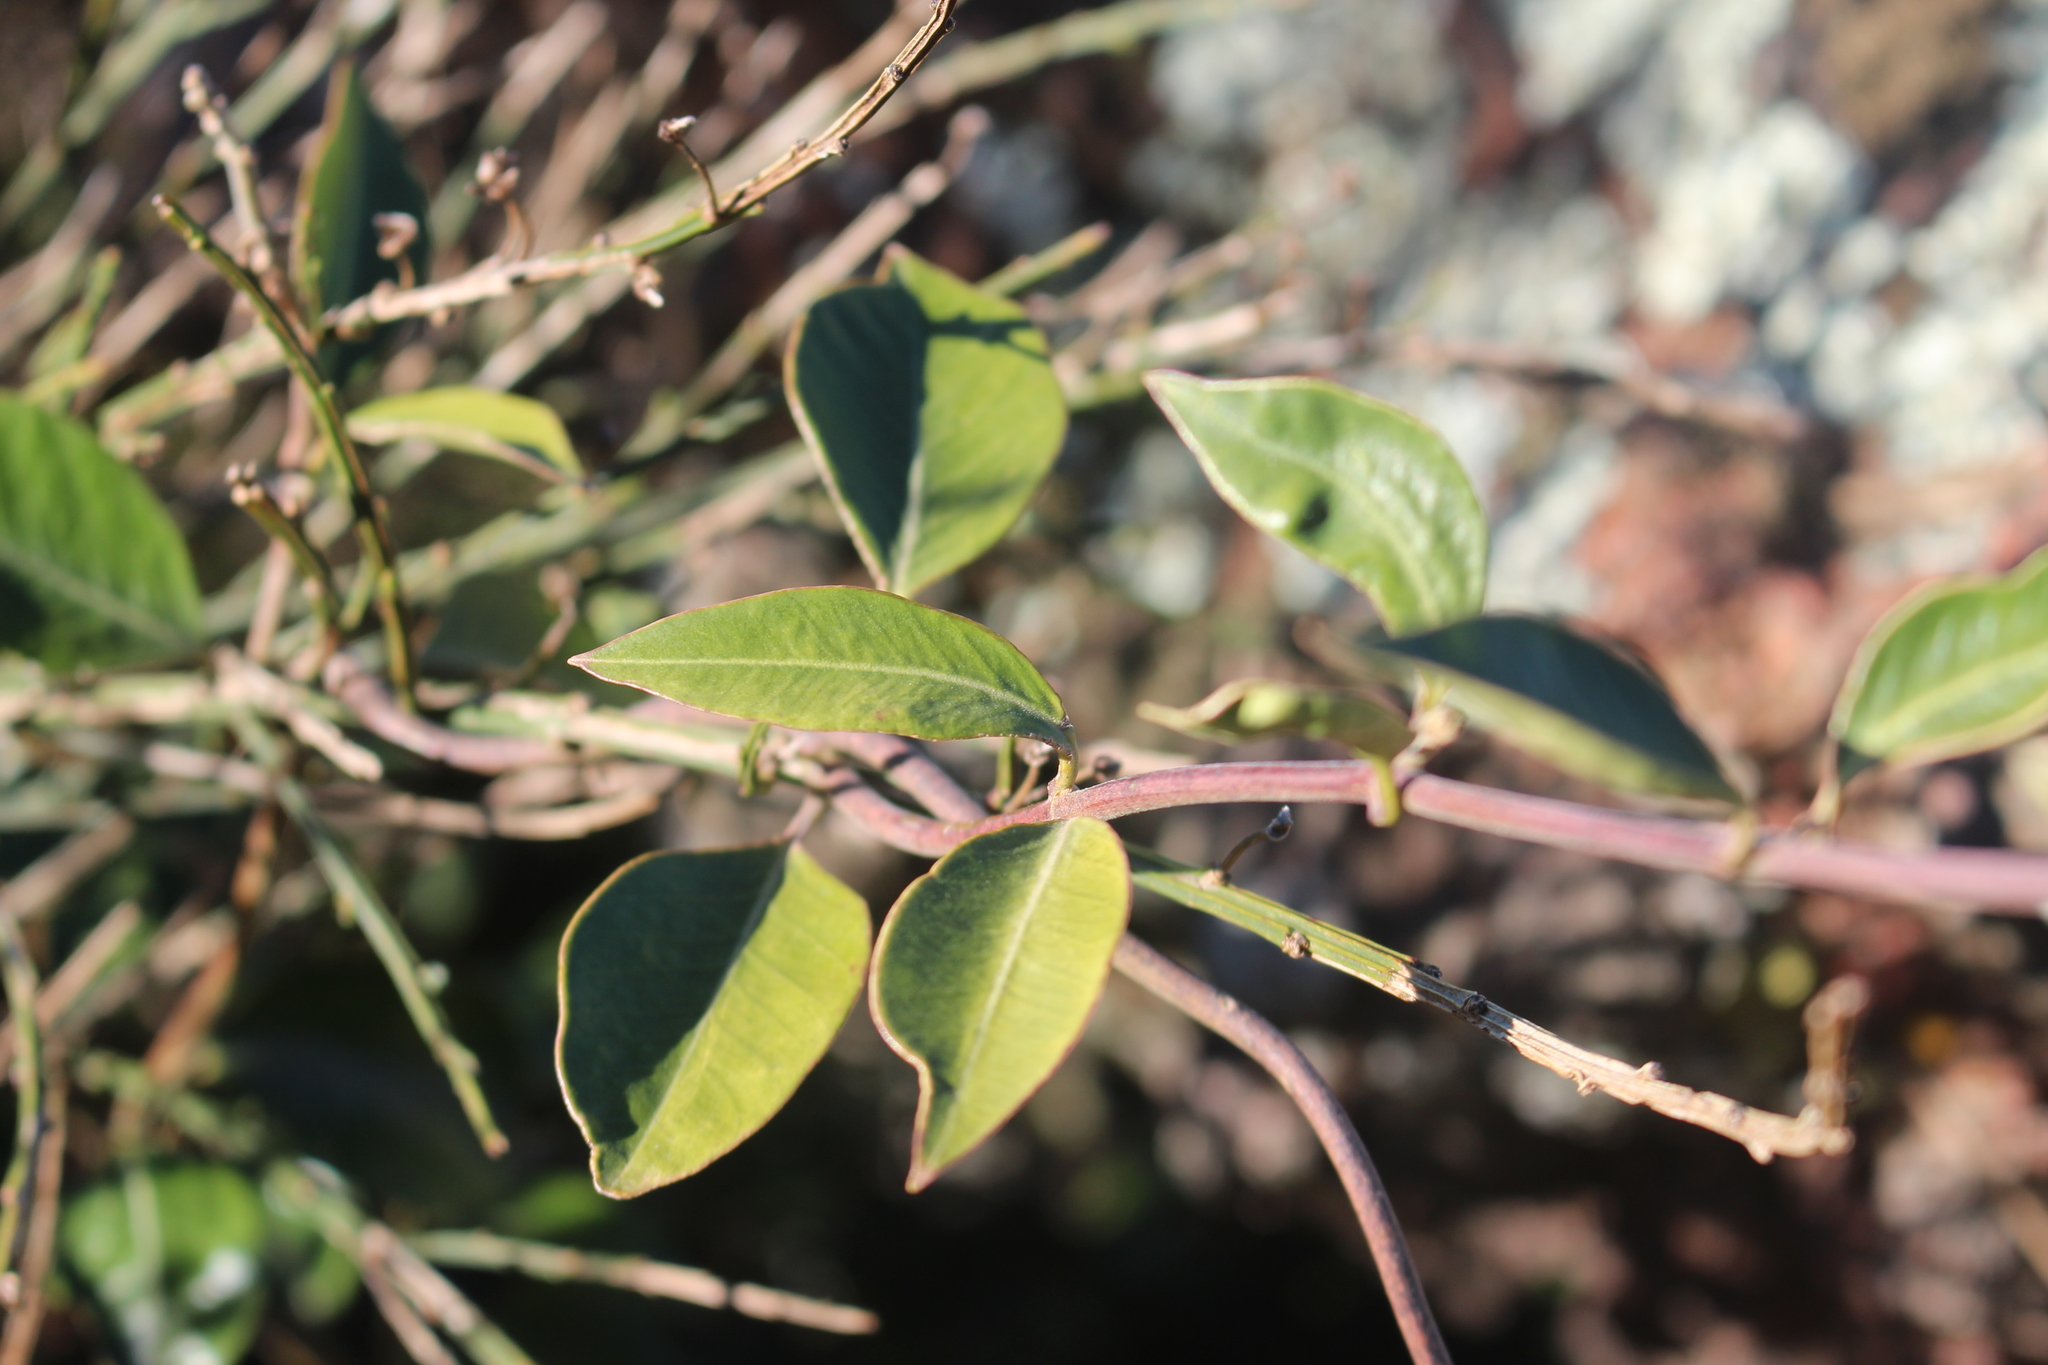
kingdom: Plantae
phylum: Tracheophyta
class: Magnoliopsida
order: Gentianales
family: Apocynaceae
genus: Parsonsia
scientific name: Parsonsia heterophylla
